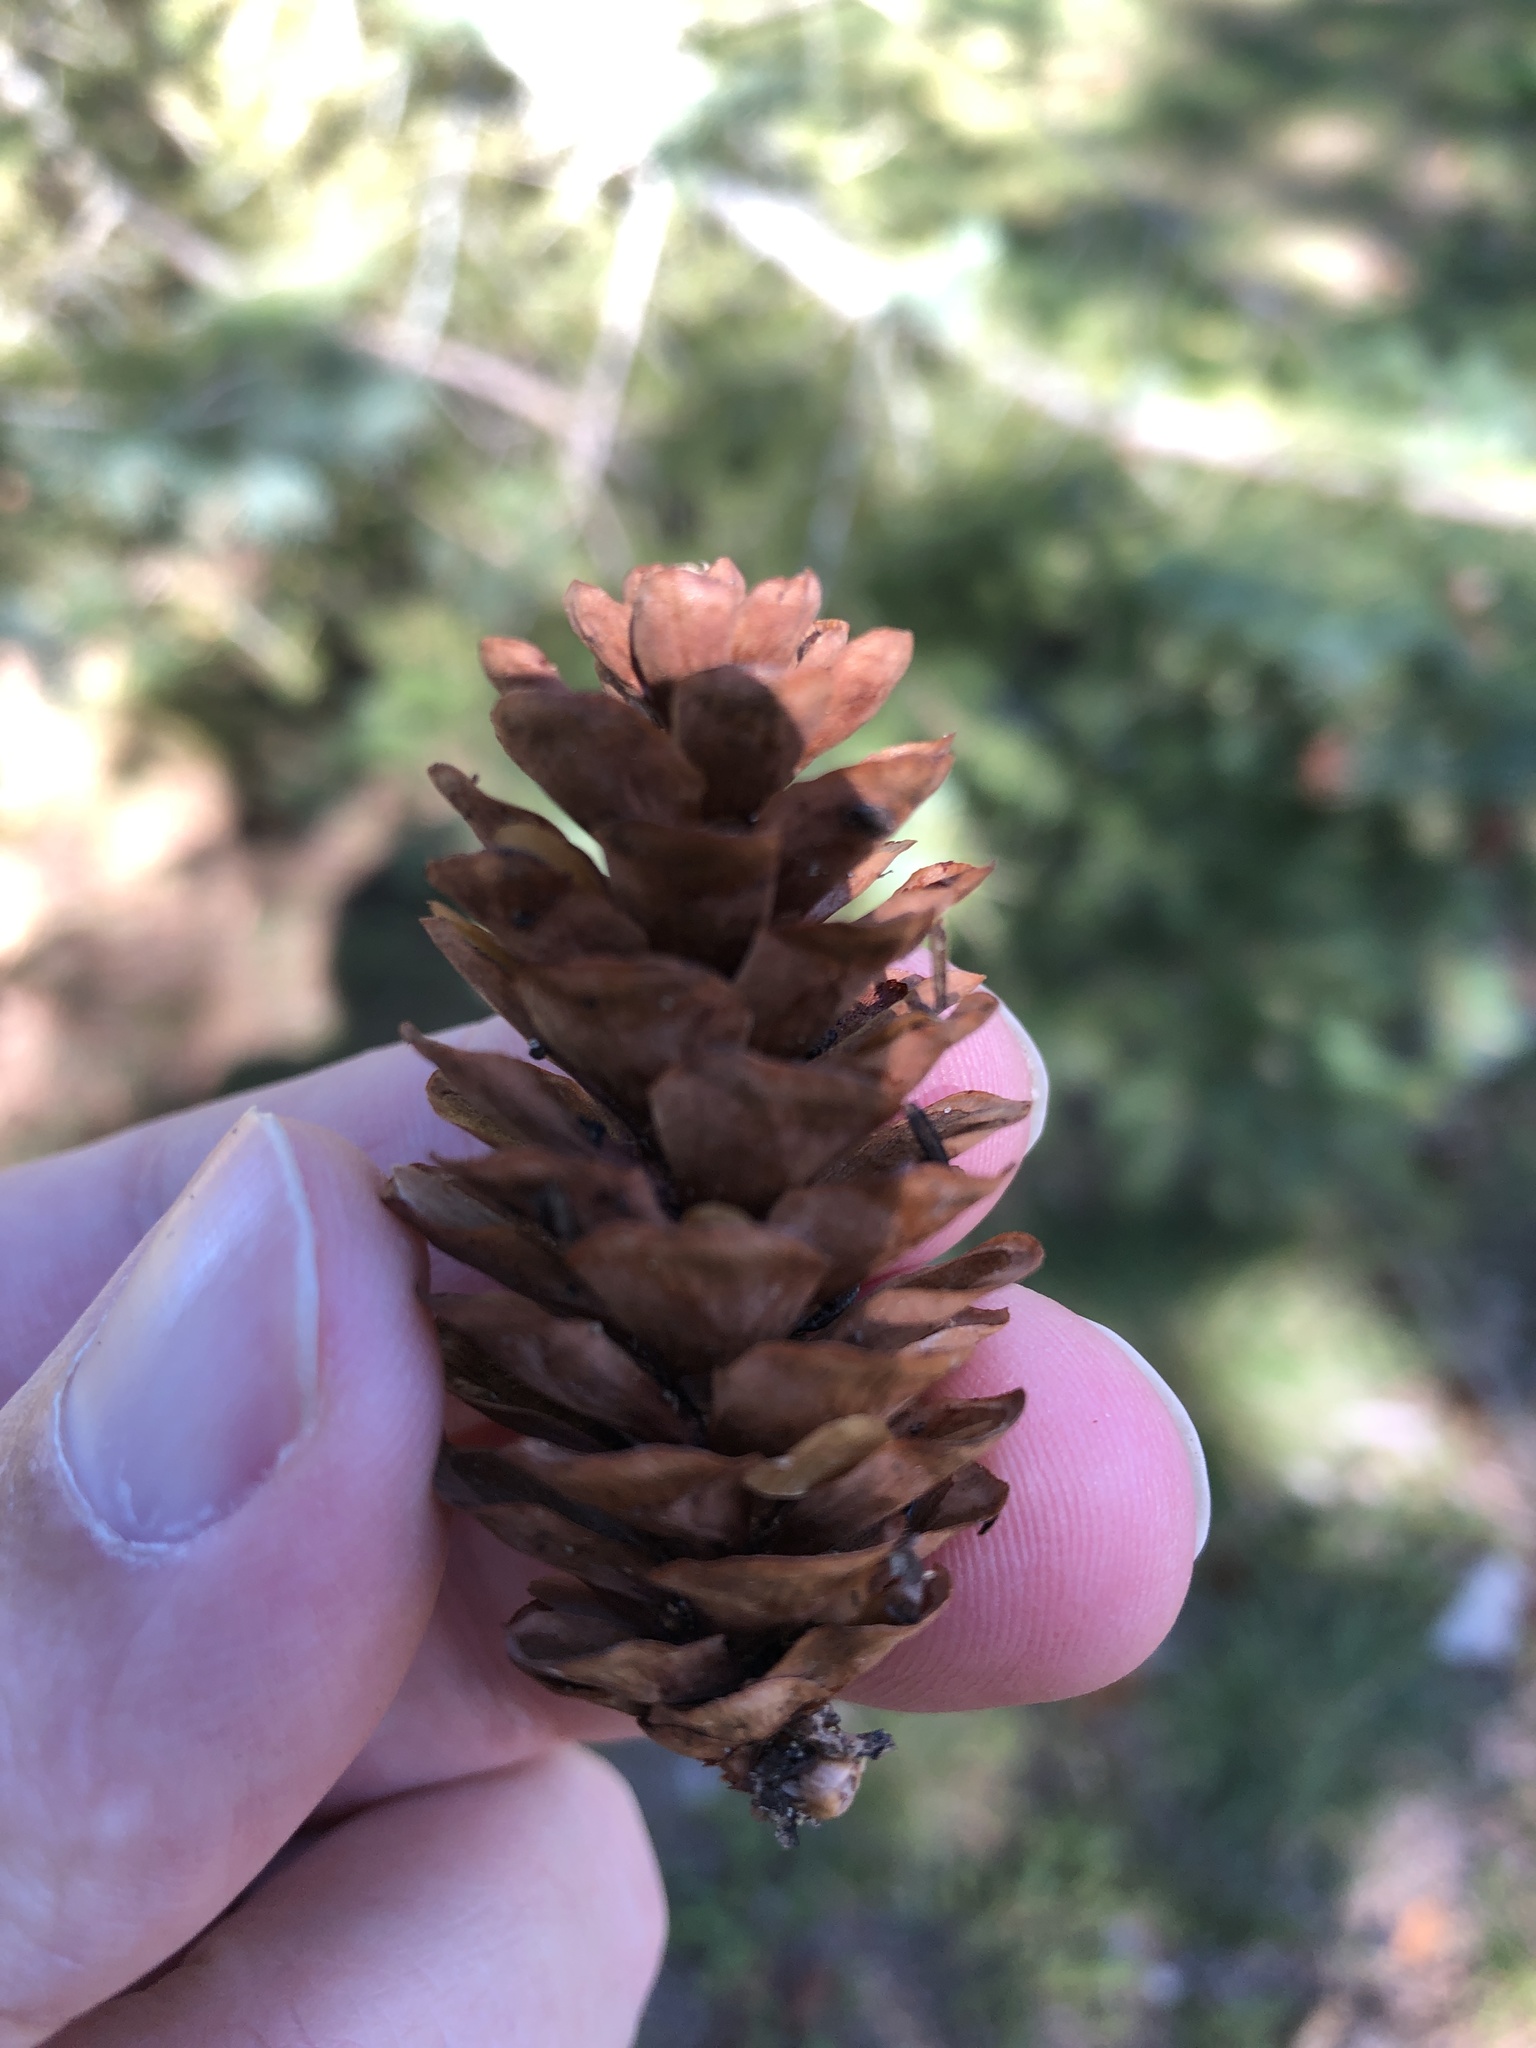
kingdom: Plantae
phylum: Tracheophyta
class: Pinopsida
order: Pinales
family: Pinaceae
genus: Picea
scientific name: Picea glauca
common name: White spruce
